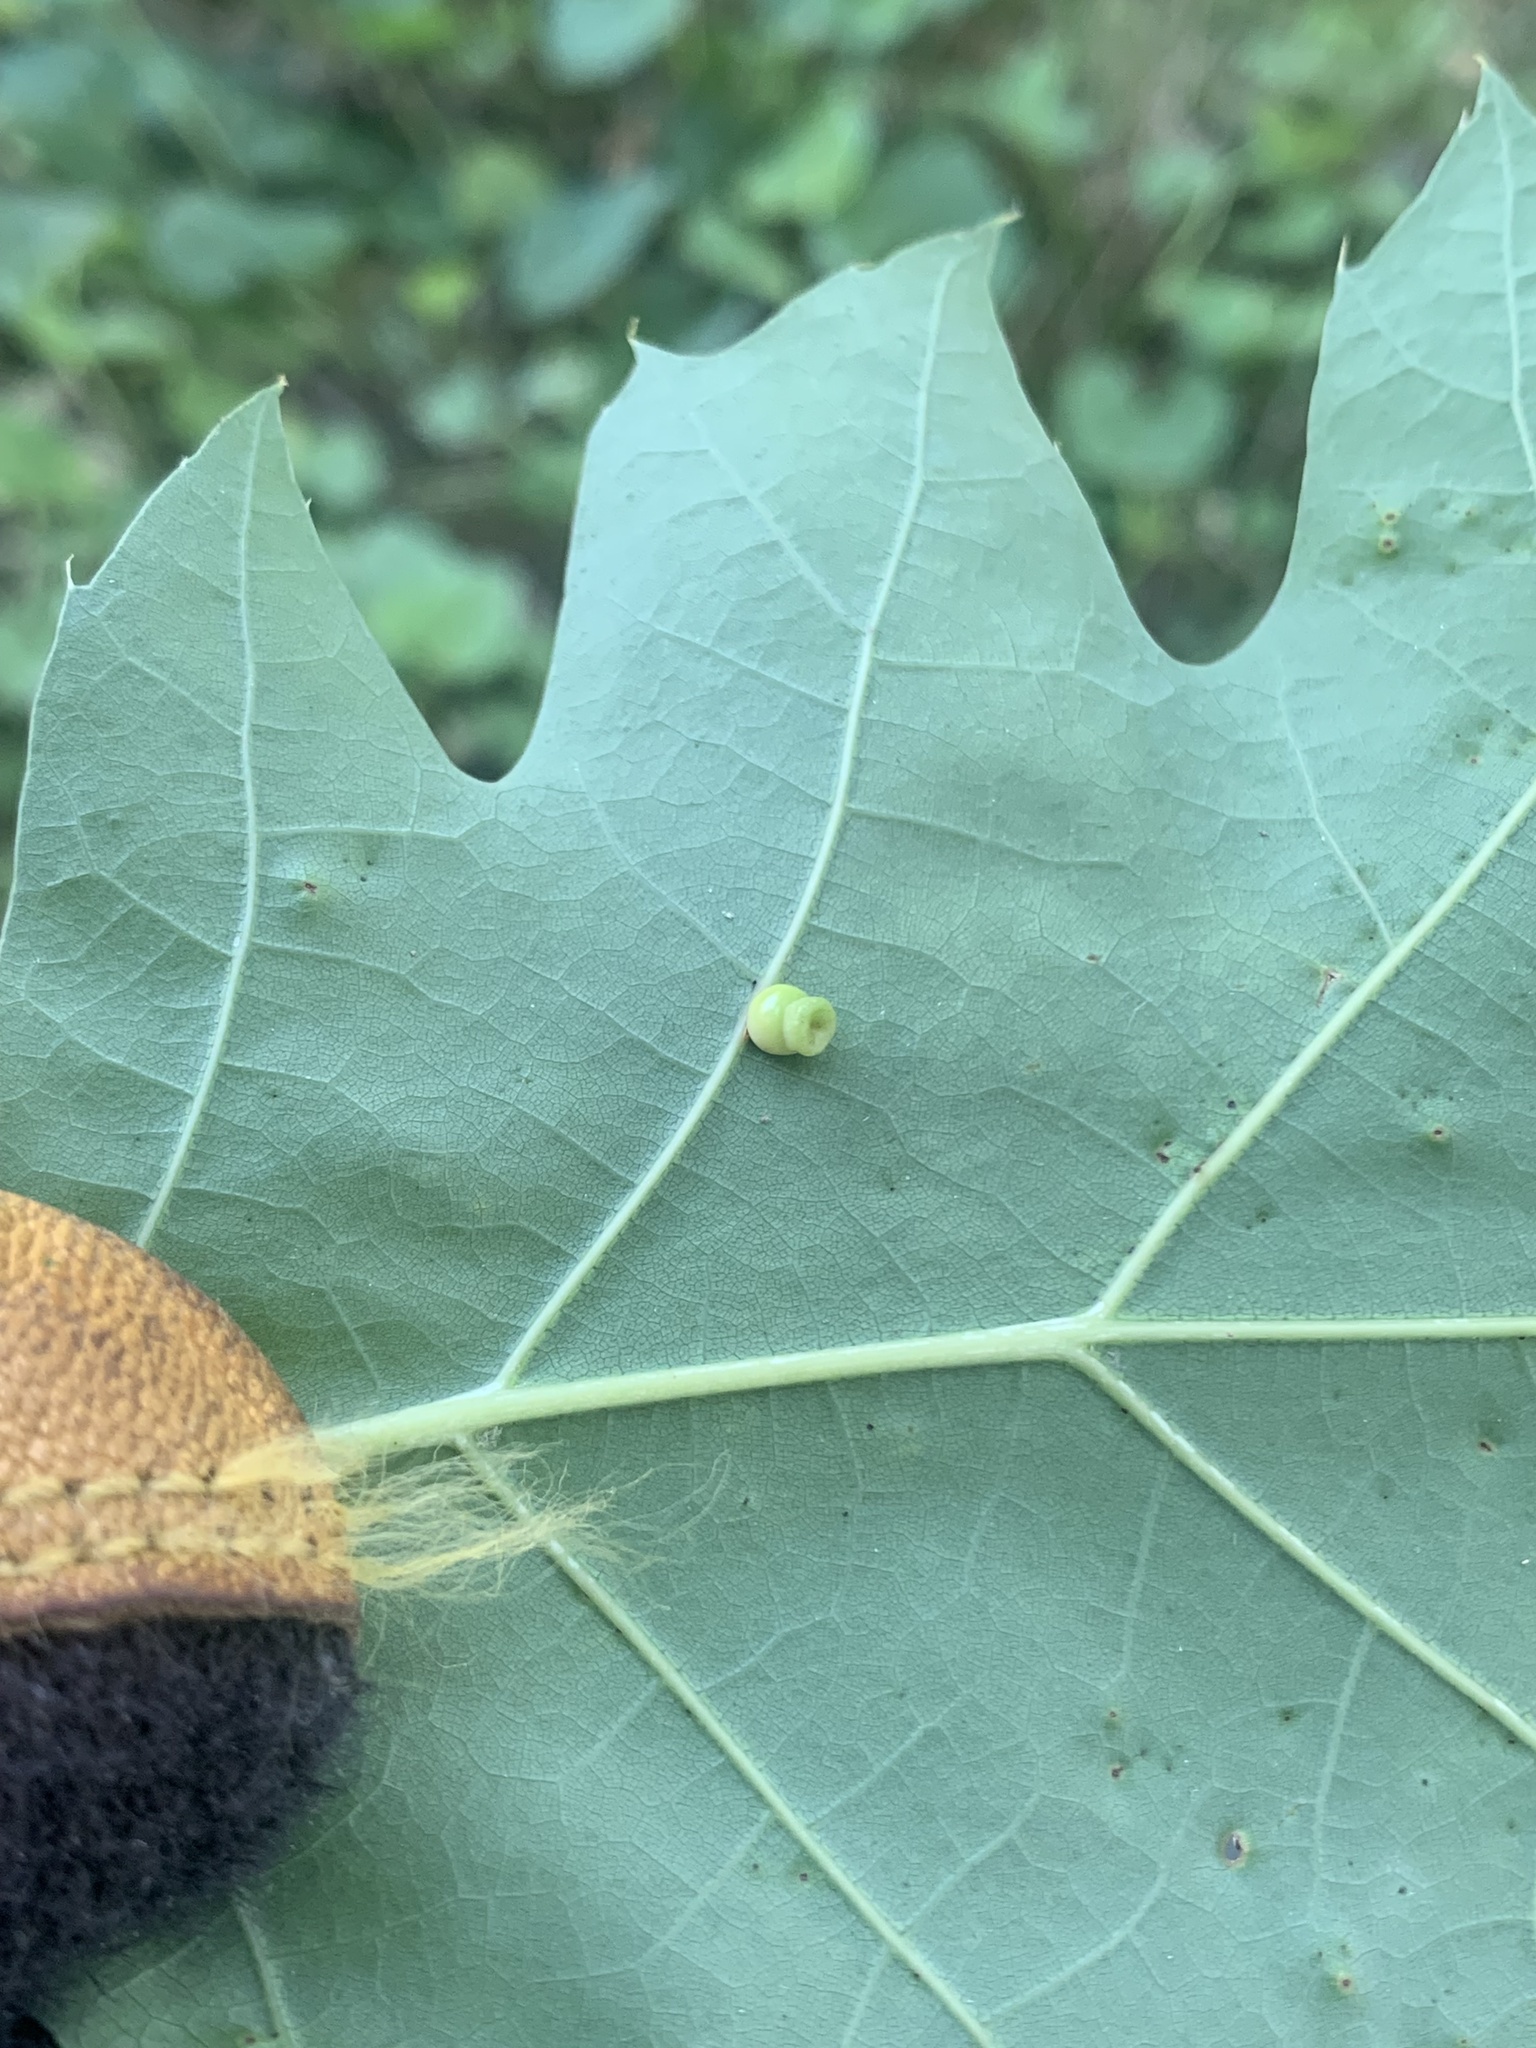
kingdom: Animalia
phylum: Arthropoda
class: Insecta
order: Hymenoptera
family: Cynipidae
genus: Kokkocynips
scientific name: Kokkocynips rileyi
